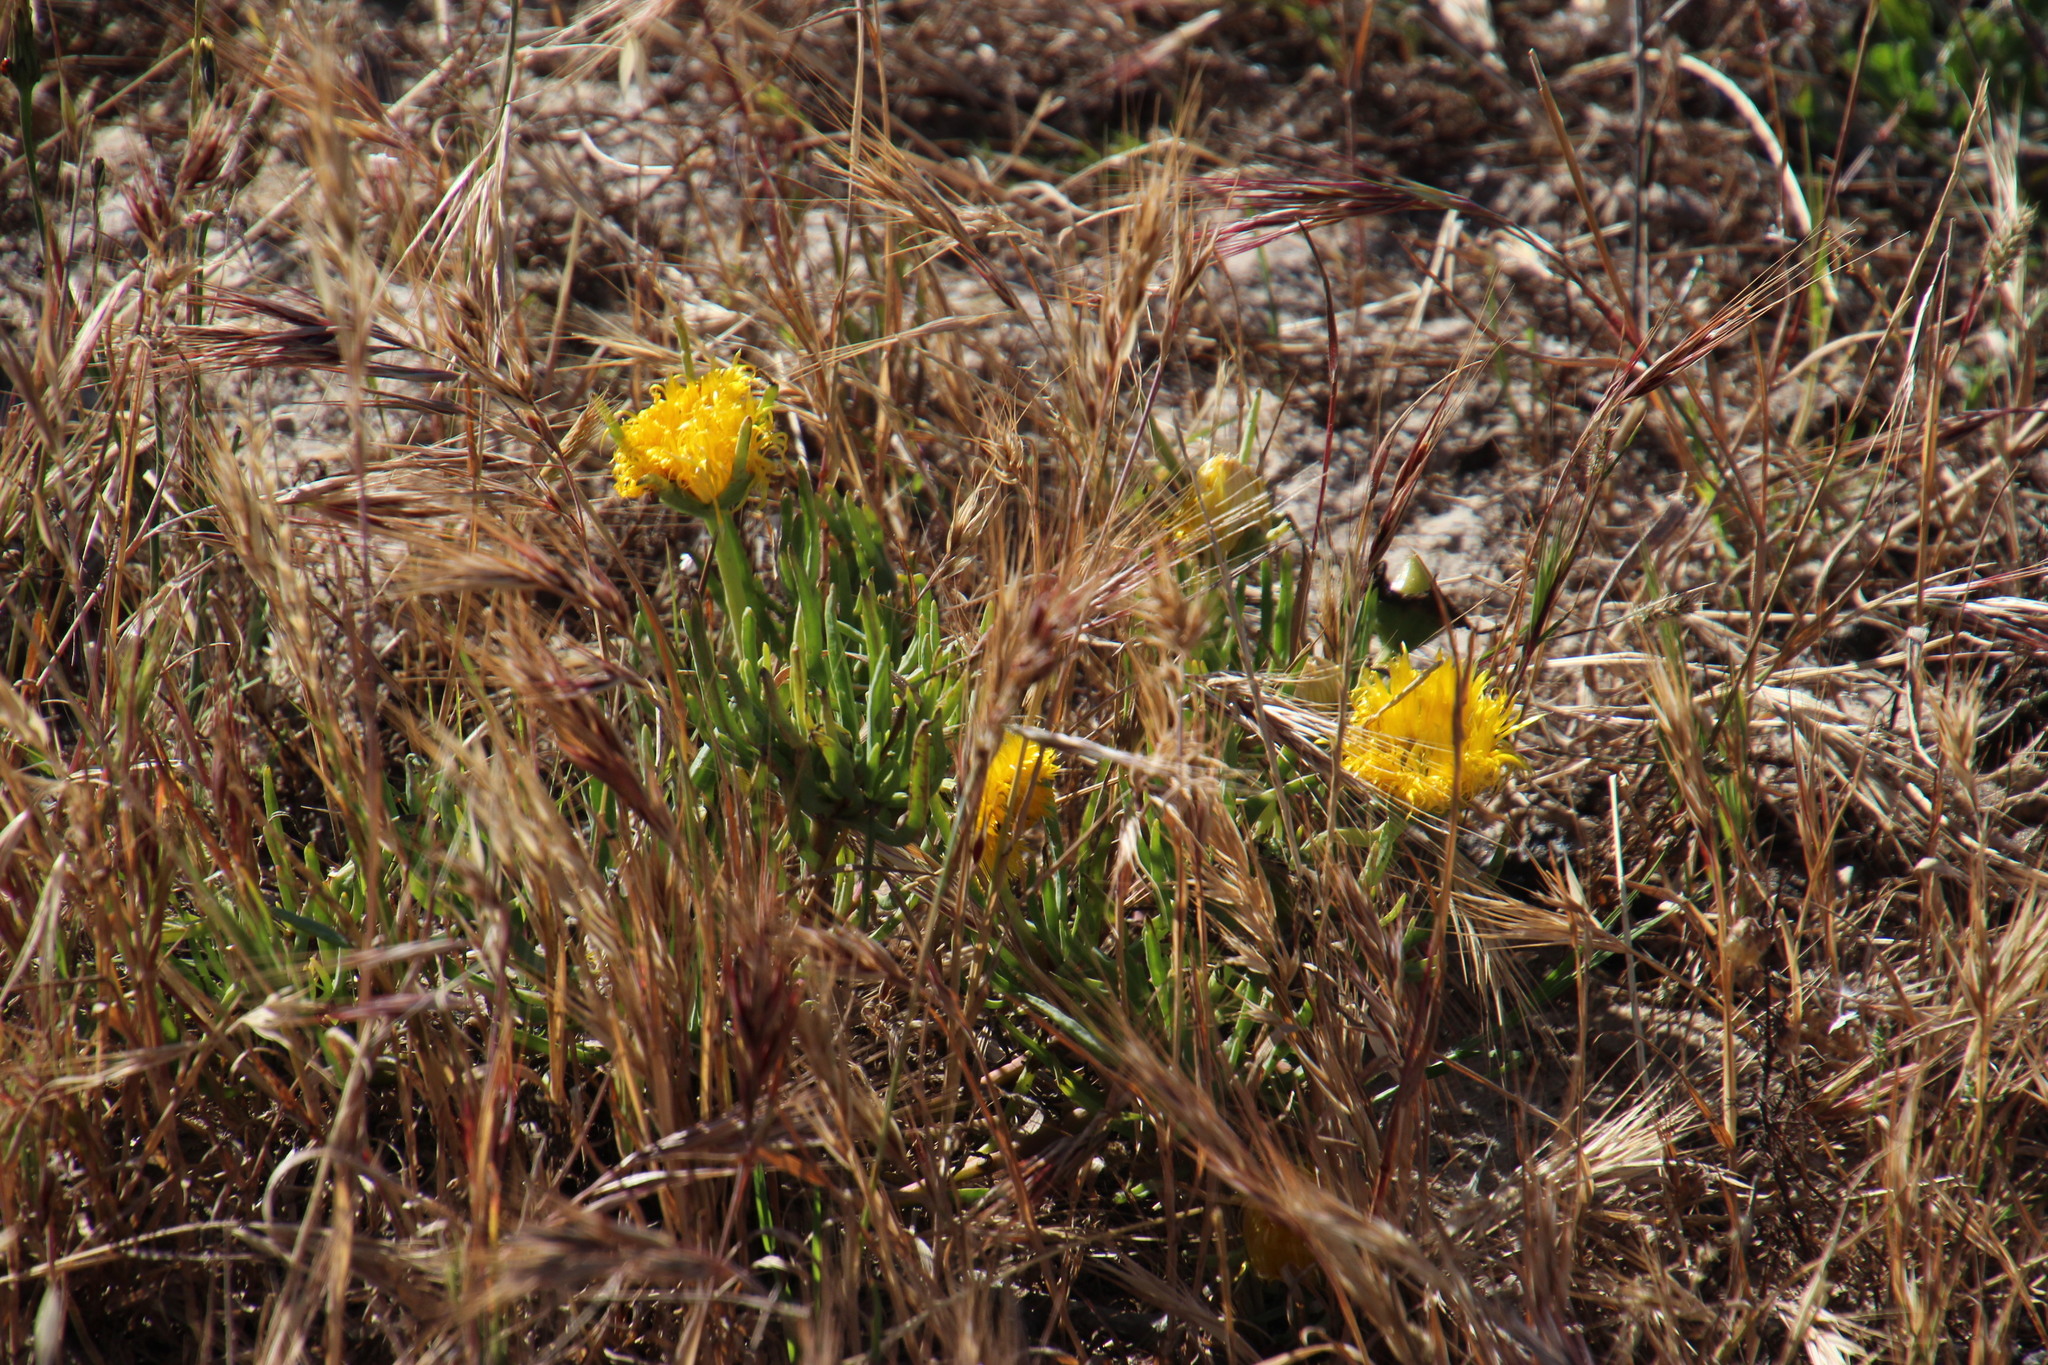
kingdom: Plantae
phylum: Tracheophyta
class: Magnoliopsida
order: Caryophyllales
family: Aizoaceae
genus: Carpobrotus
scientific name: Carpobrotus edulis
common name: Hottentot-fig
